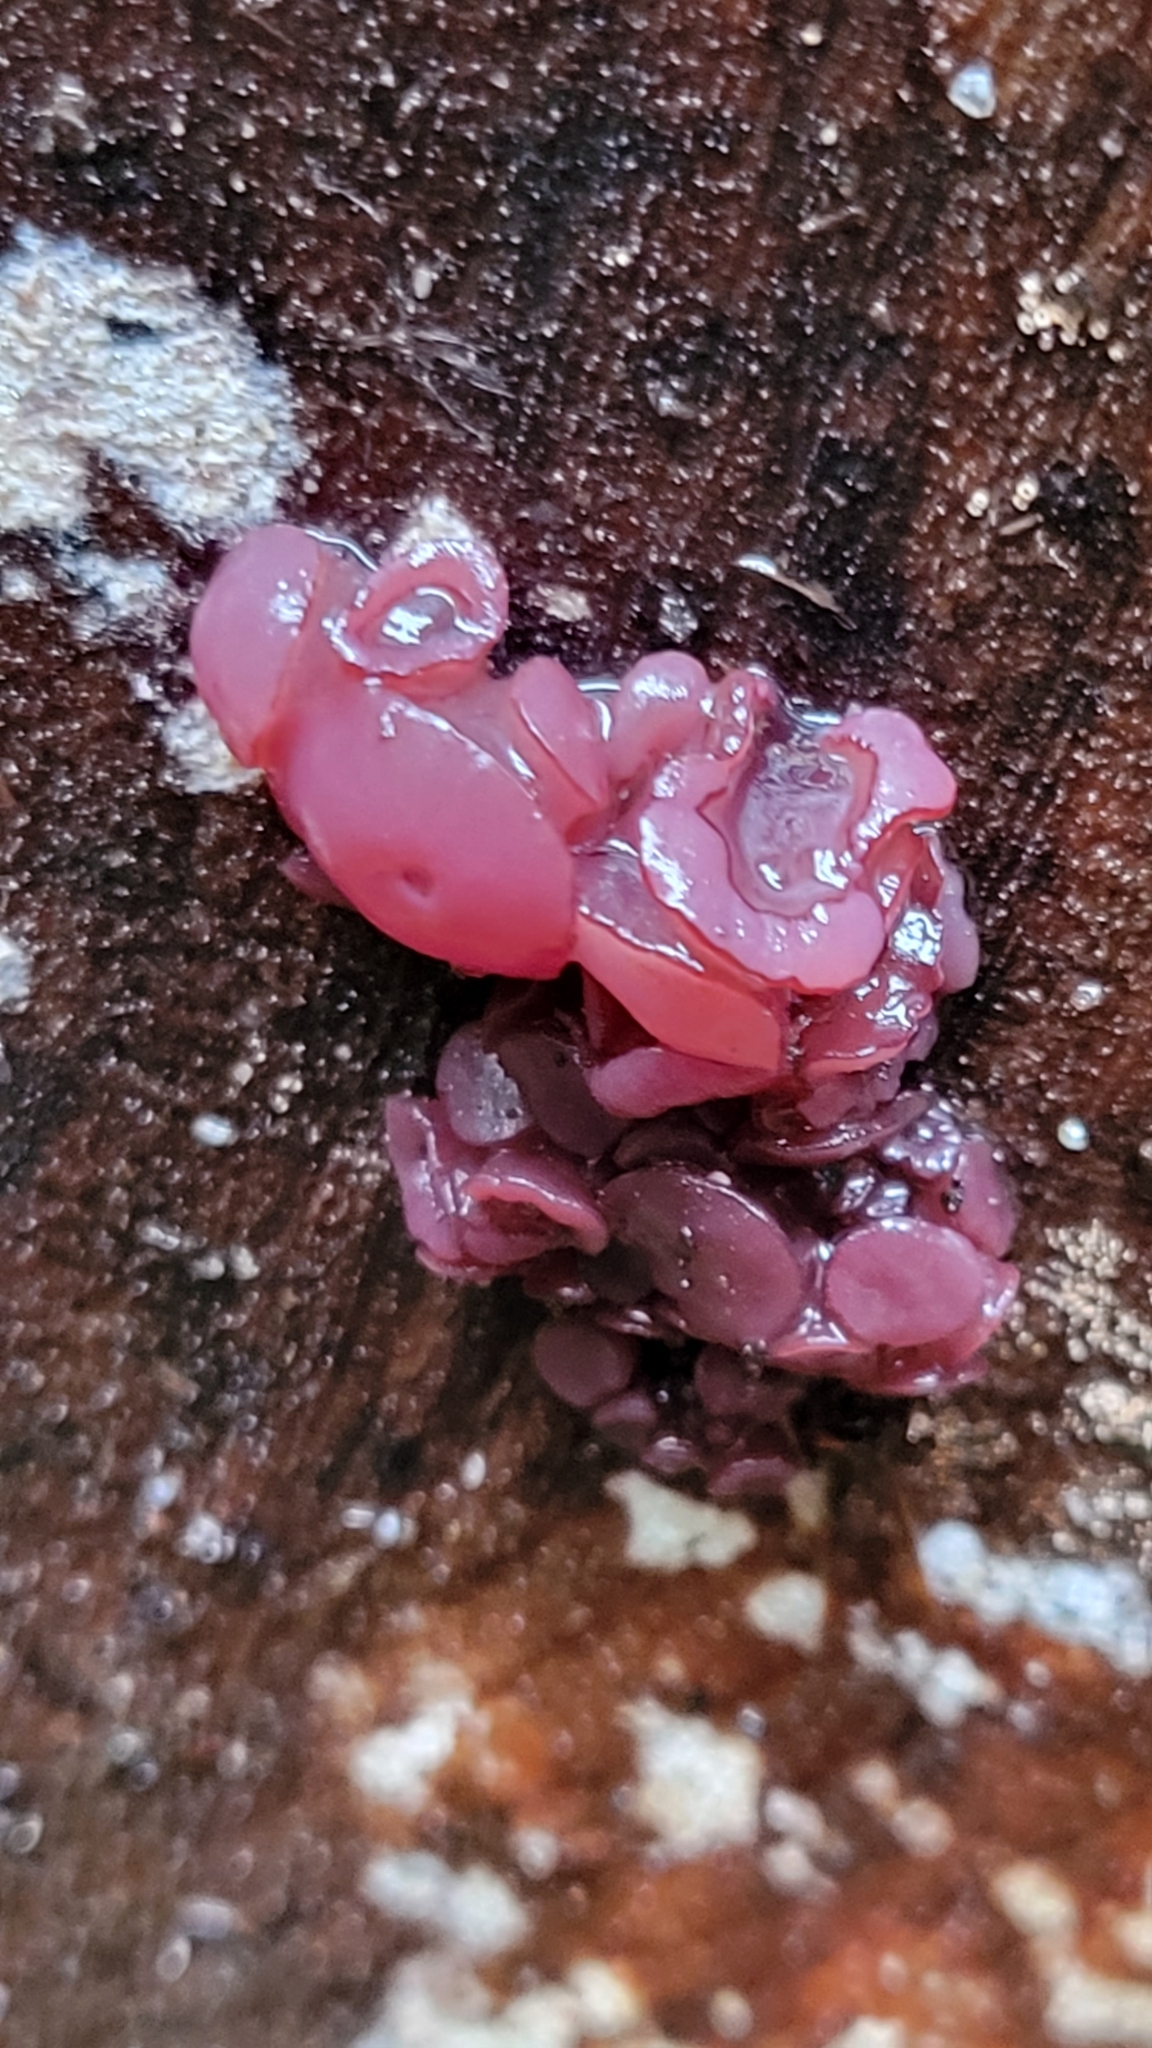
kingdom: Fungi
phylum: Ascomycota
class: Leotiomycetes
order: Helotiales
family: Gelatinodiscaceae
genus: Ascocoryne
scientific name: Ascocoryne sarcoides
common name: Purple jellydisc
